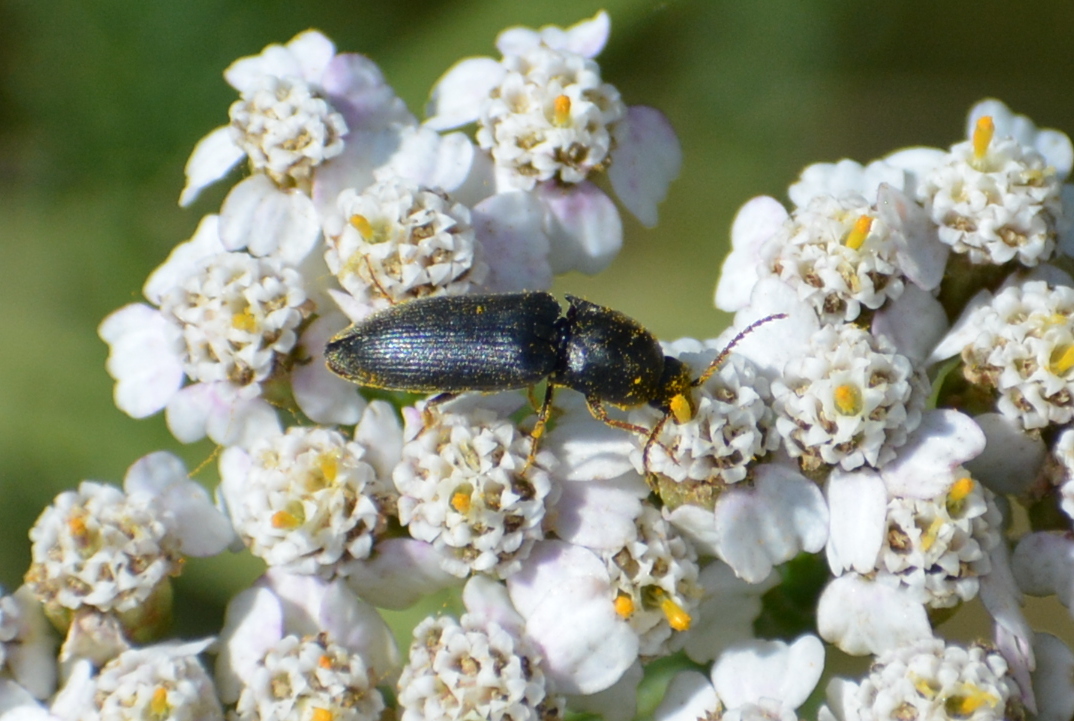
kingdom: Animalia
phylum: Arthropoda
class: Insecta
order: Coleoptera
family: Elateridae
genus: Hemicrepidius
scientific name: Hemicrepidius niger
